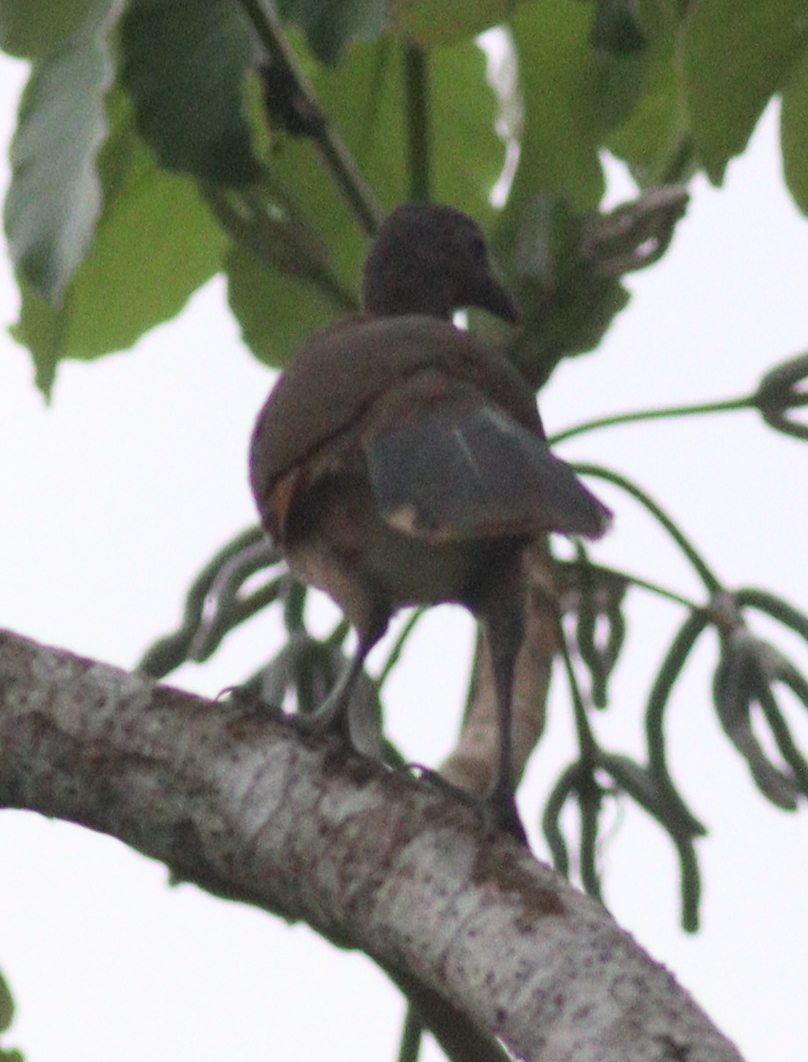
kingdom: Animalia
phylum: Chordata
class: Aves
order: Galliformes
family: Cracidae
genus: Ortalis
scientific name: Ortalis cinereiceps
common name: Grey-headed chachalaca
